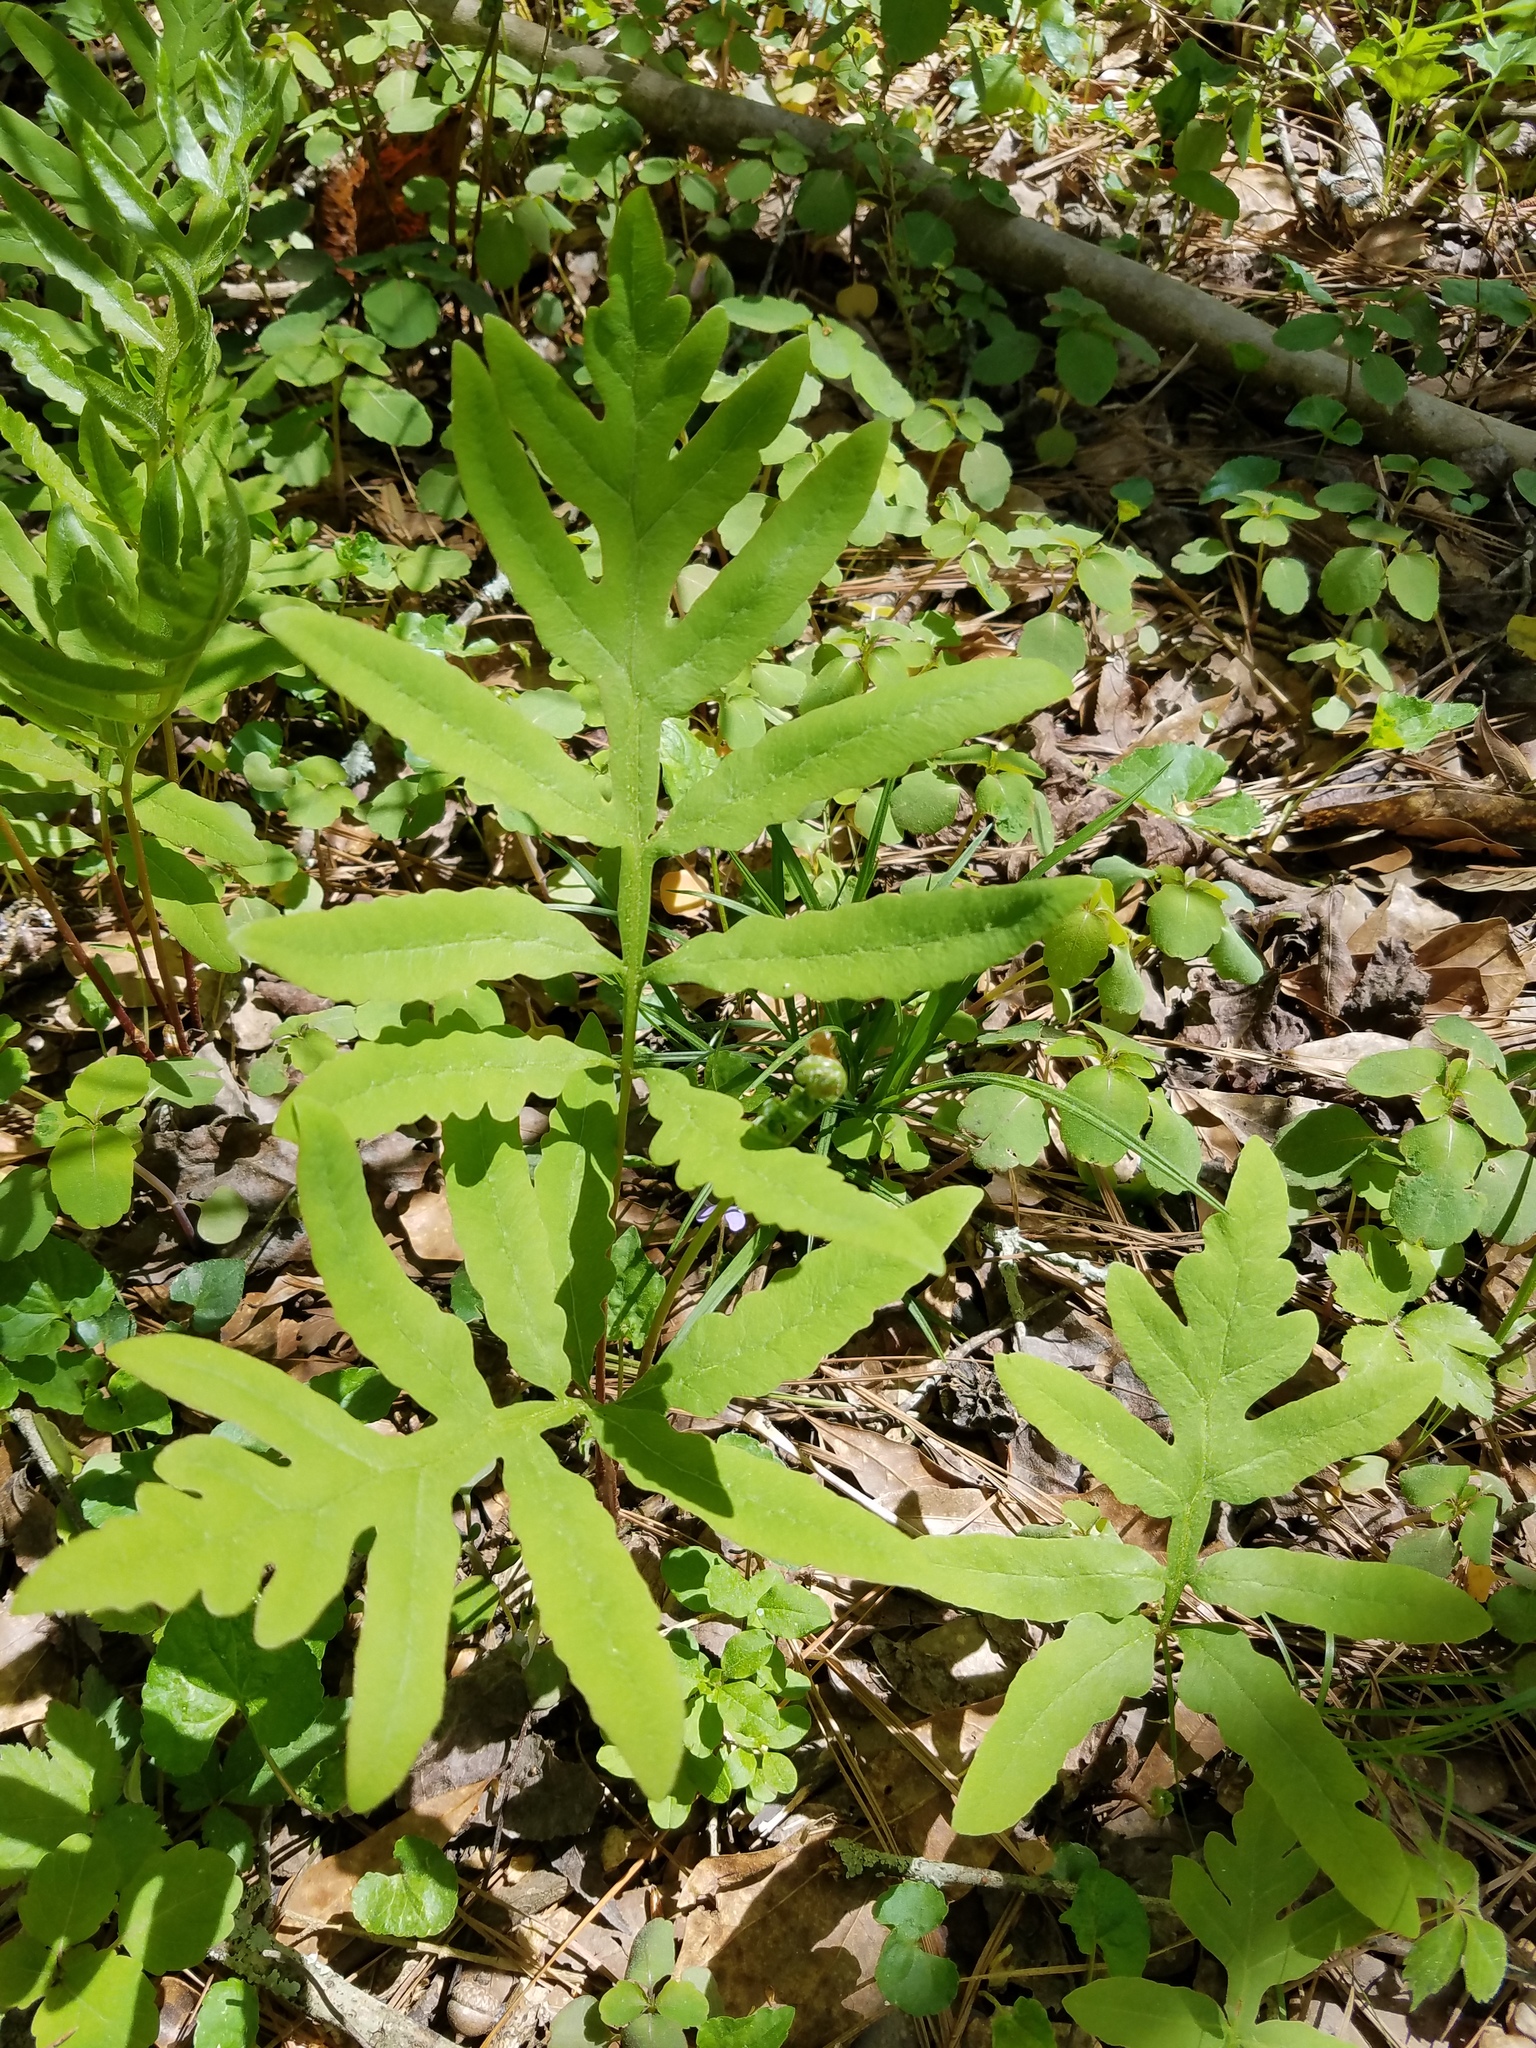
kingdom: Plantae
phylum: Tracheophyta
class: Polypodiopsida
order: Polypodiales
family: Onocleaceae
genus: Onoclea
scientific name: Onoclea sensibilis
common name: Sensitive fern
